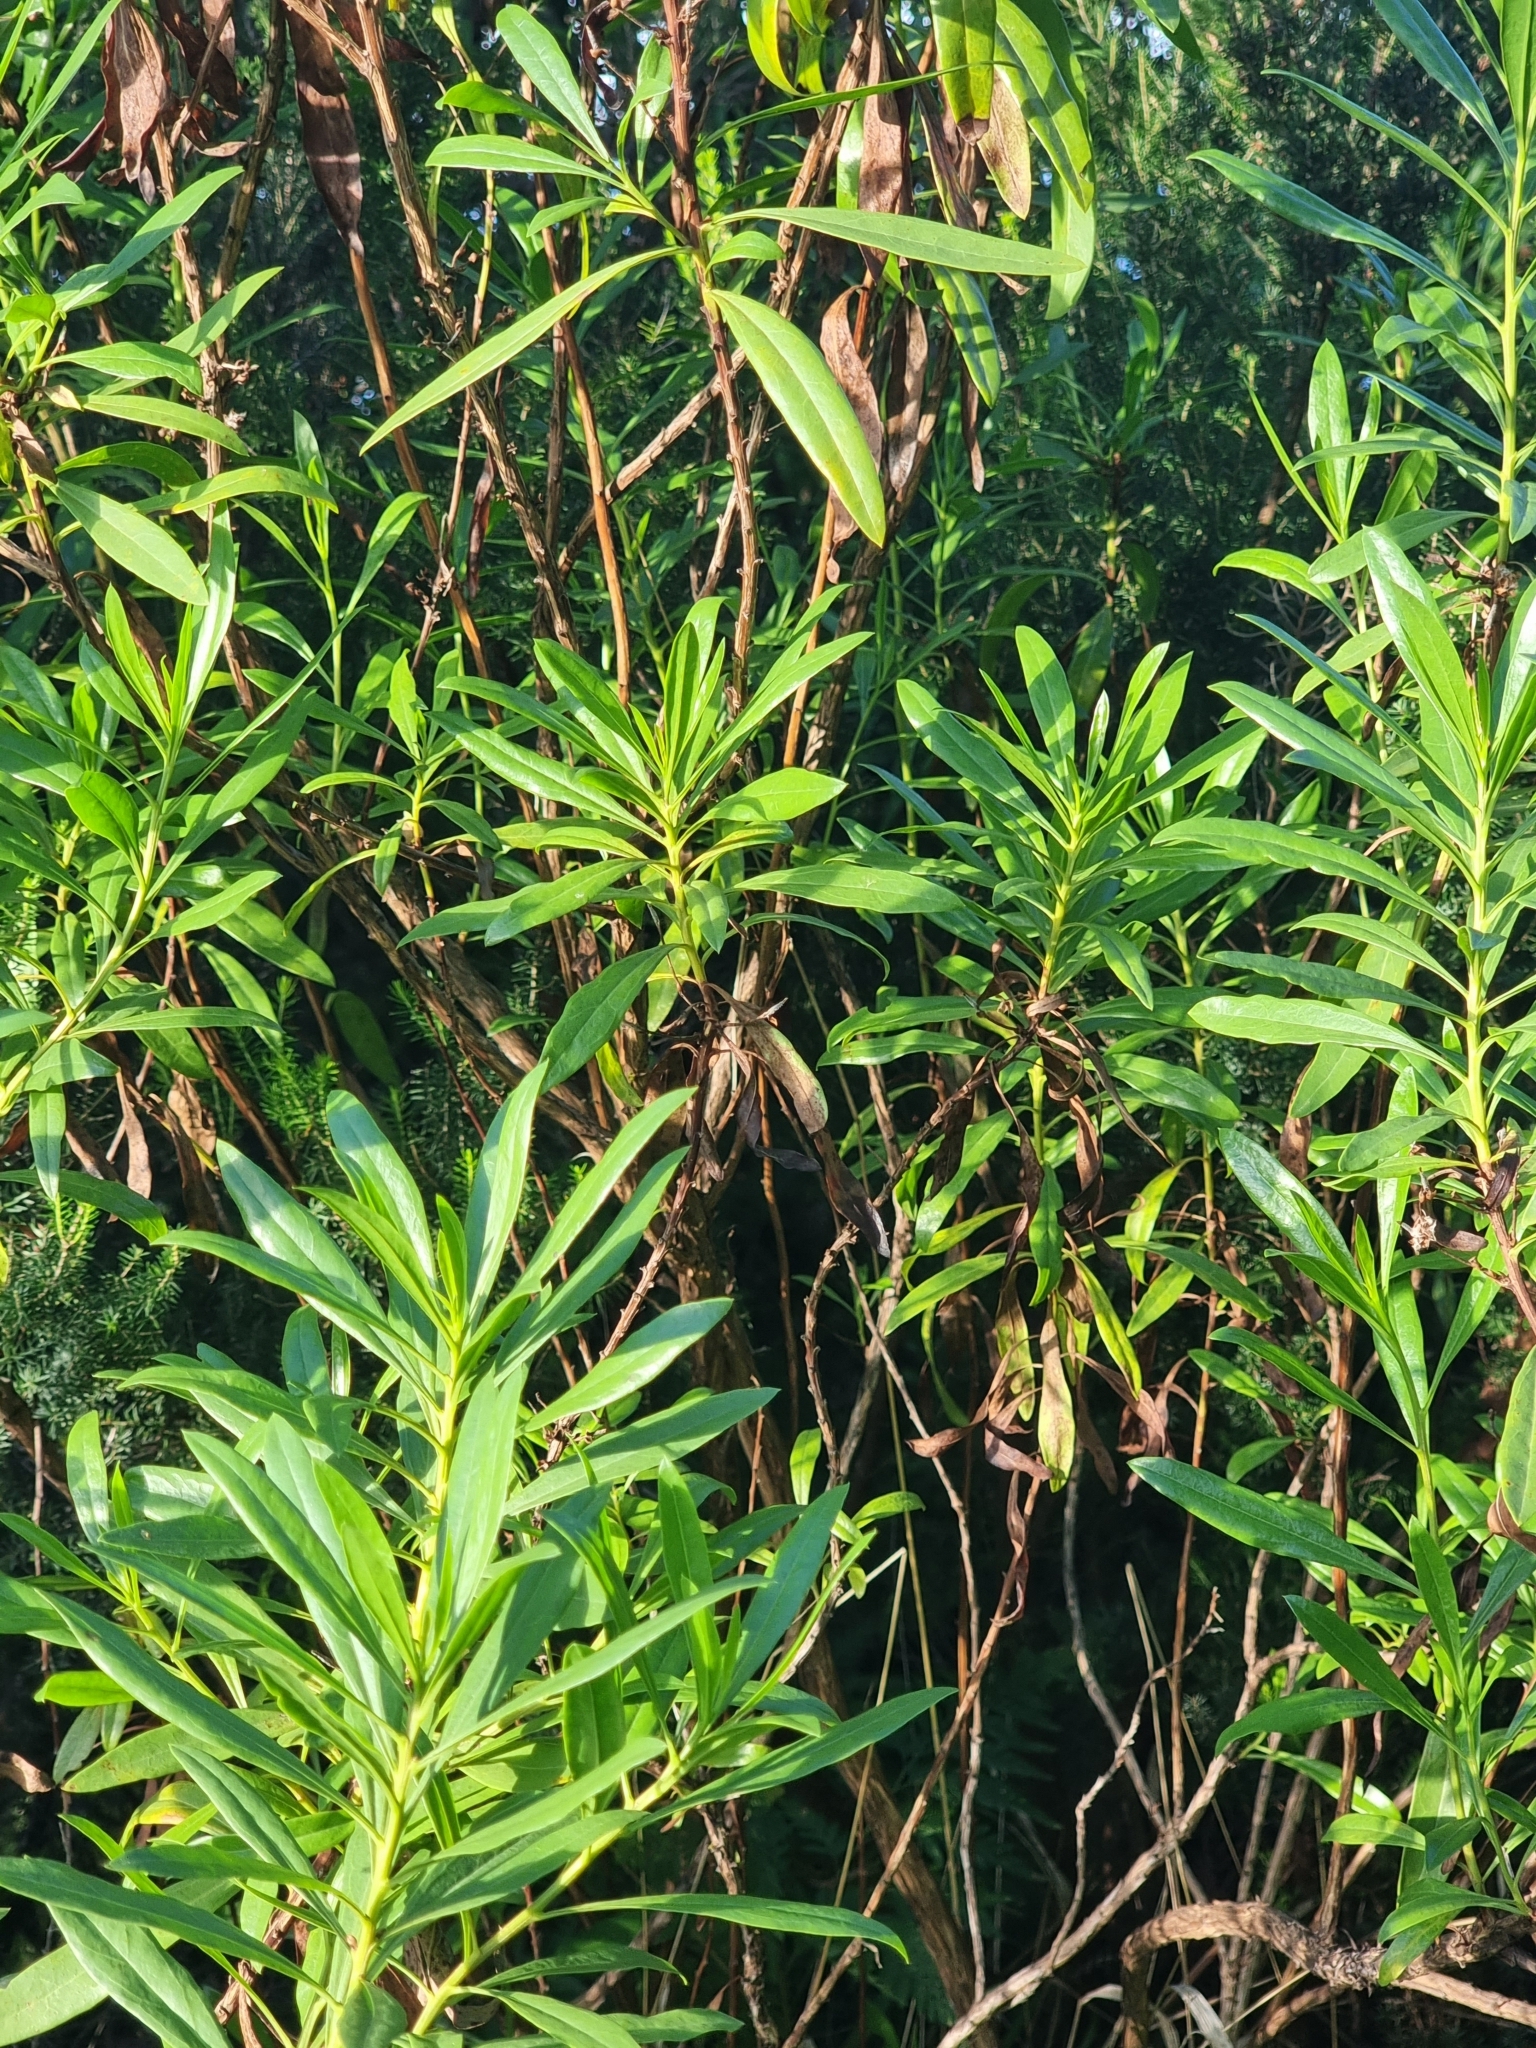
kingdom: Plantae
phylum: Tracheophyta
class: Magnoliopsida
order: Lamiales
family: Plantaginaceae
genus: Globularia
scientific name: Globularia salicina
